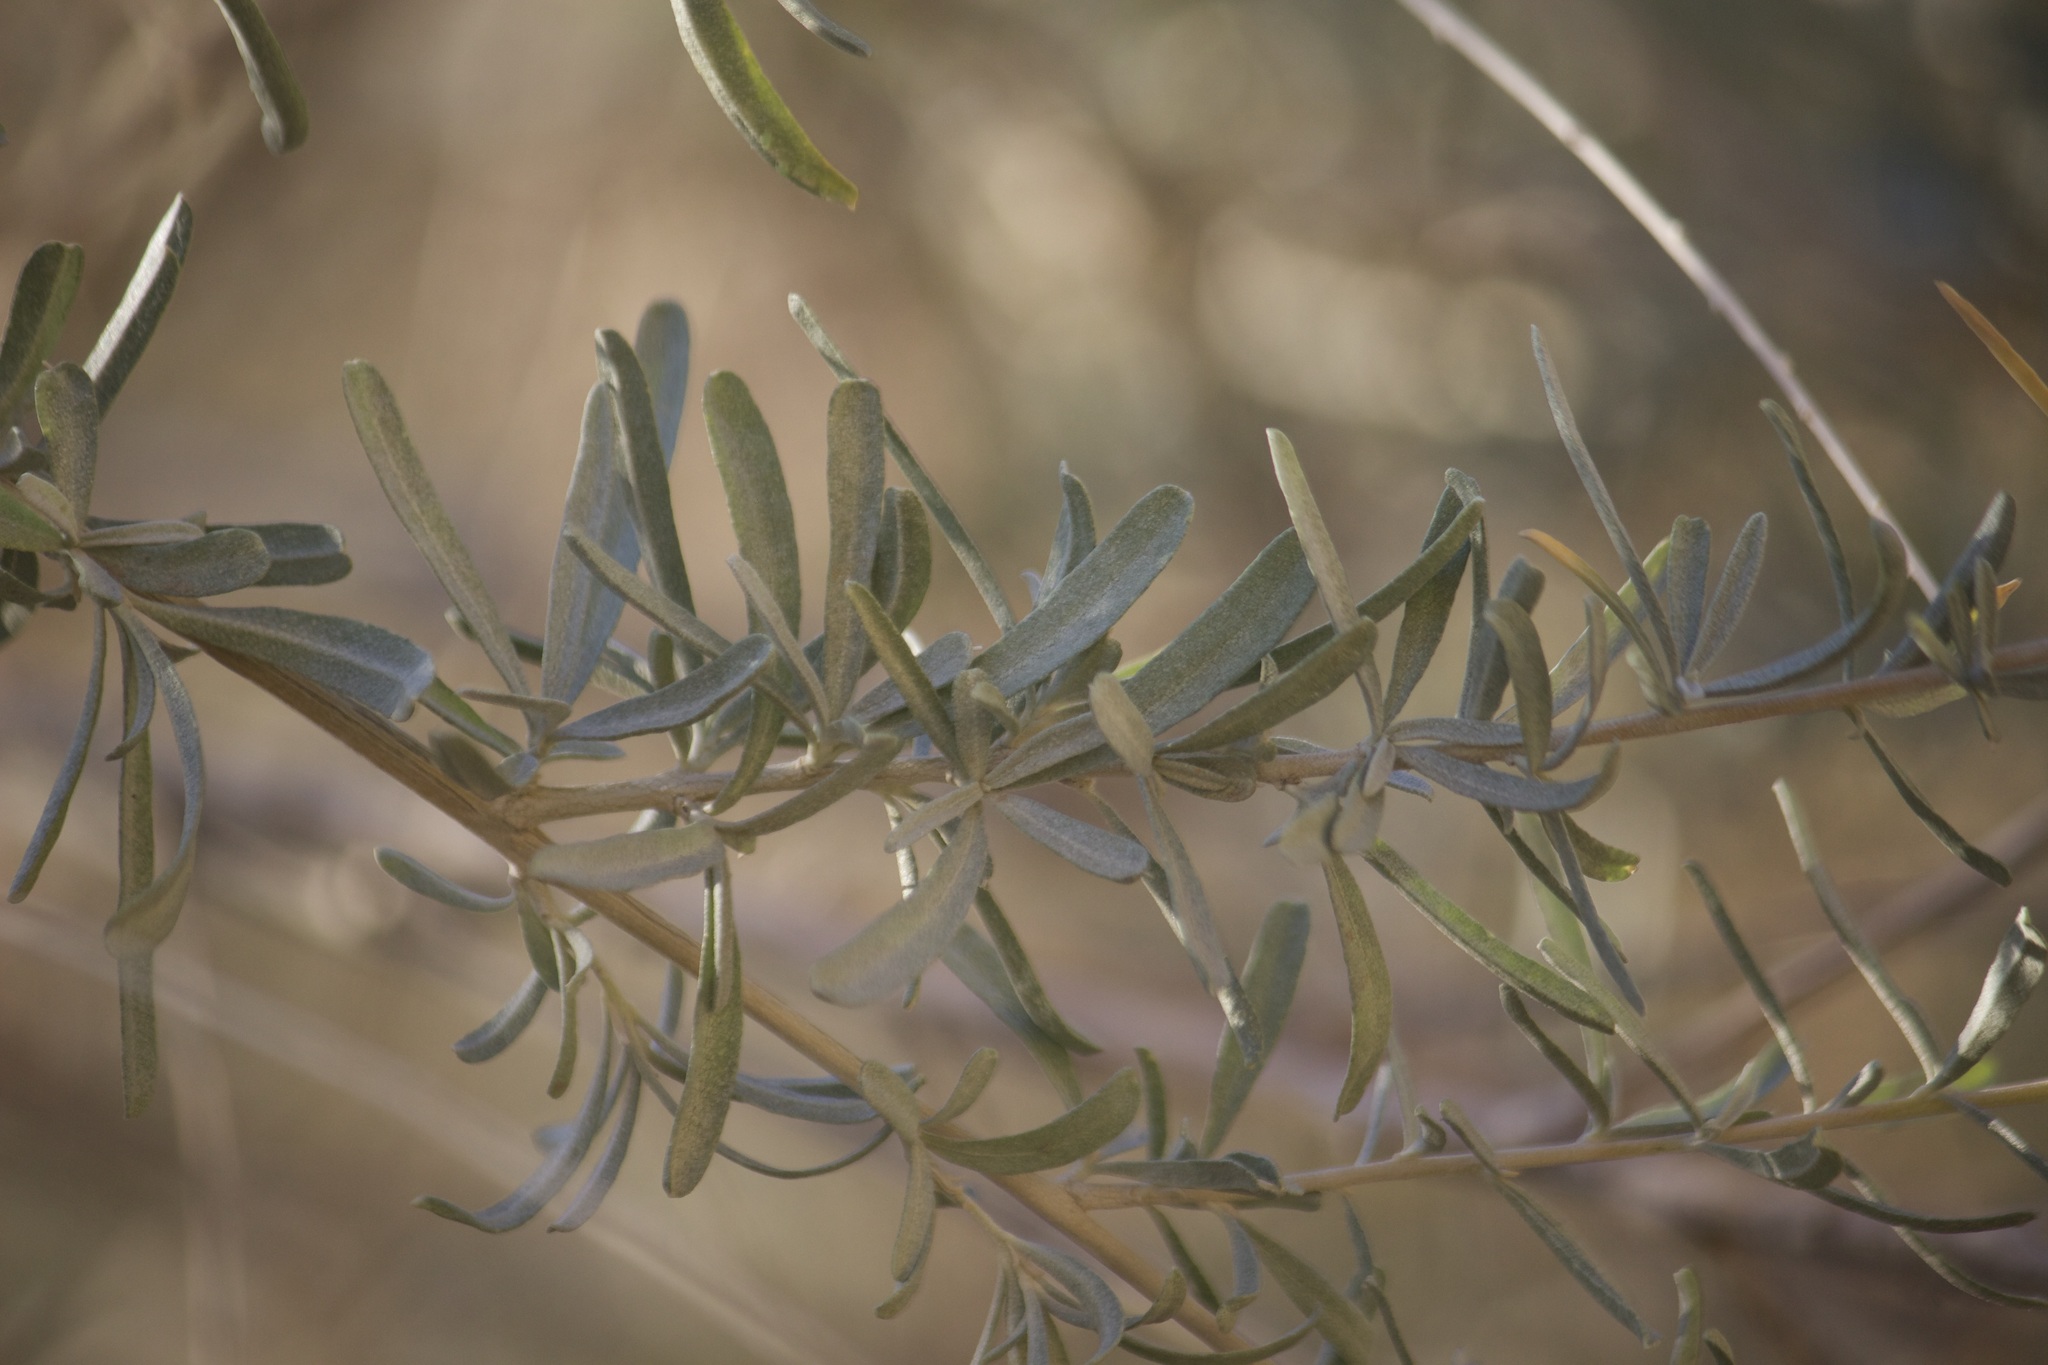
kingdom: Plantae
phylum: Tracheophyta
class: Magnoliopsida
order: Caryophyllales
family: Amaranthaceae
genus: Atriplex
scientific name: Atriplex canescens
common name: Four-wing saltbush
